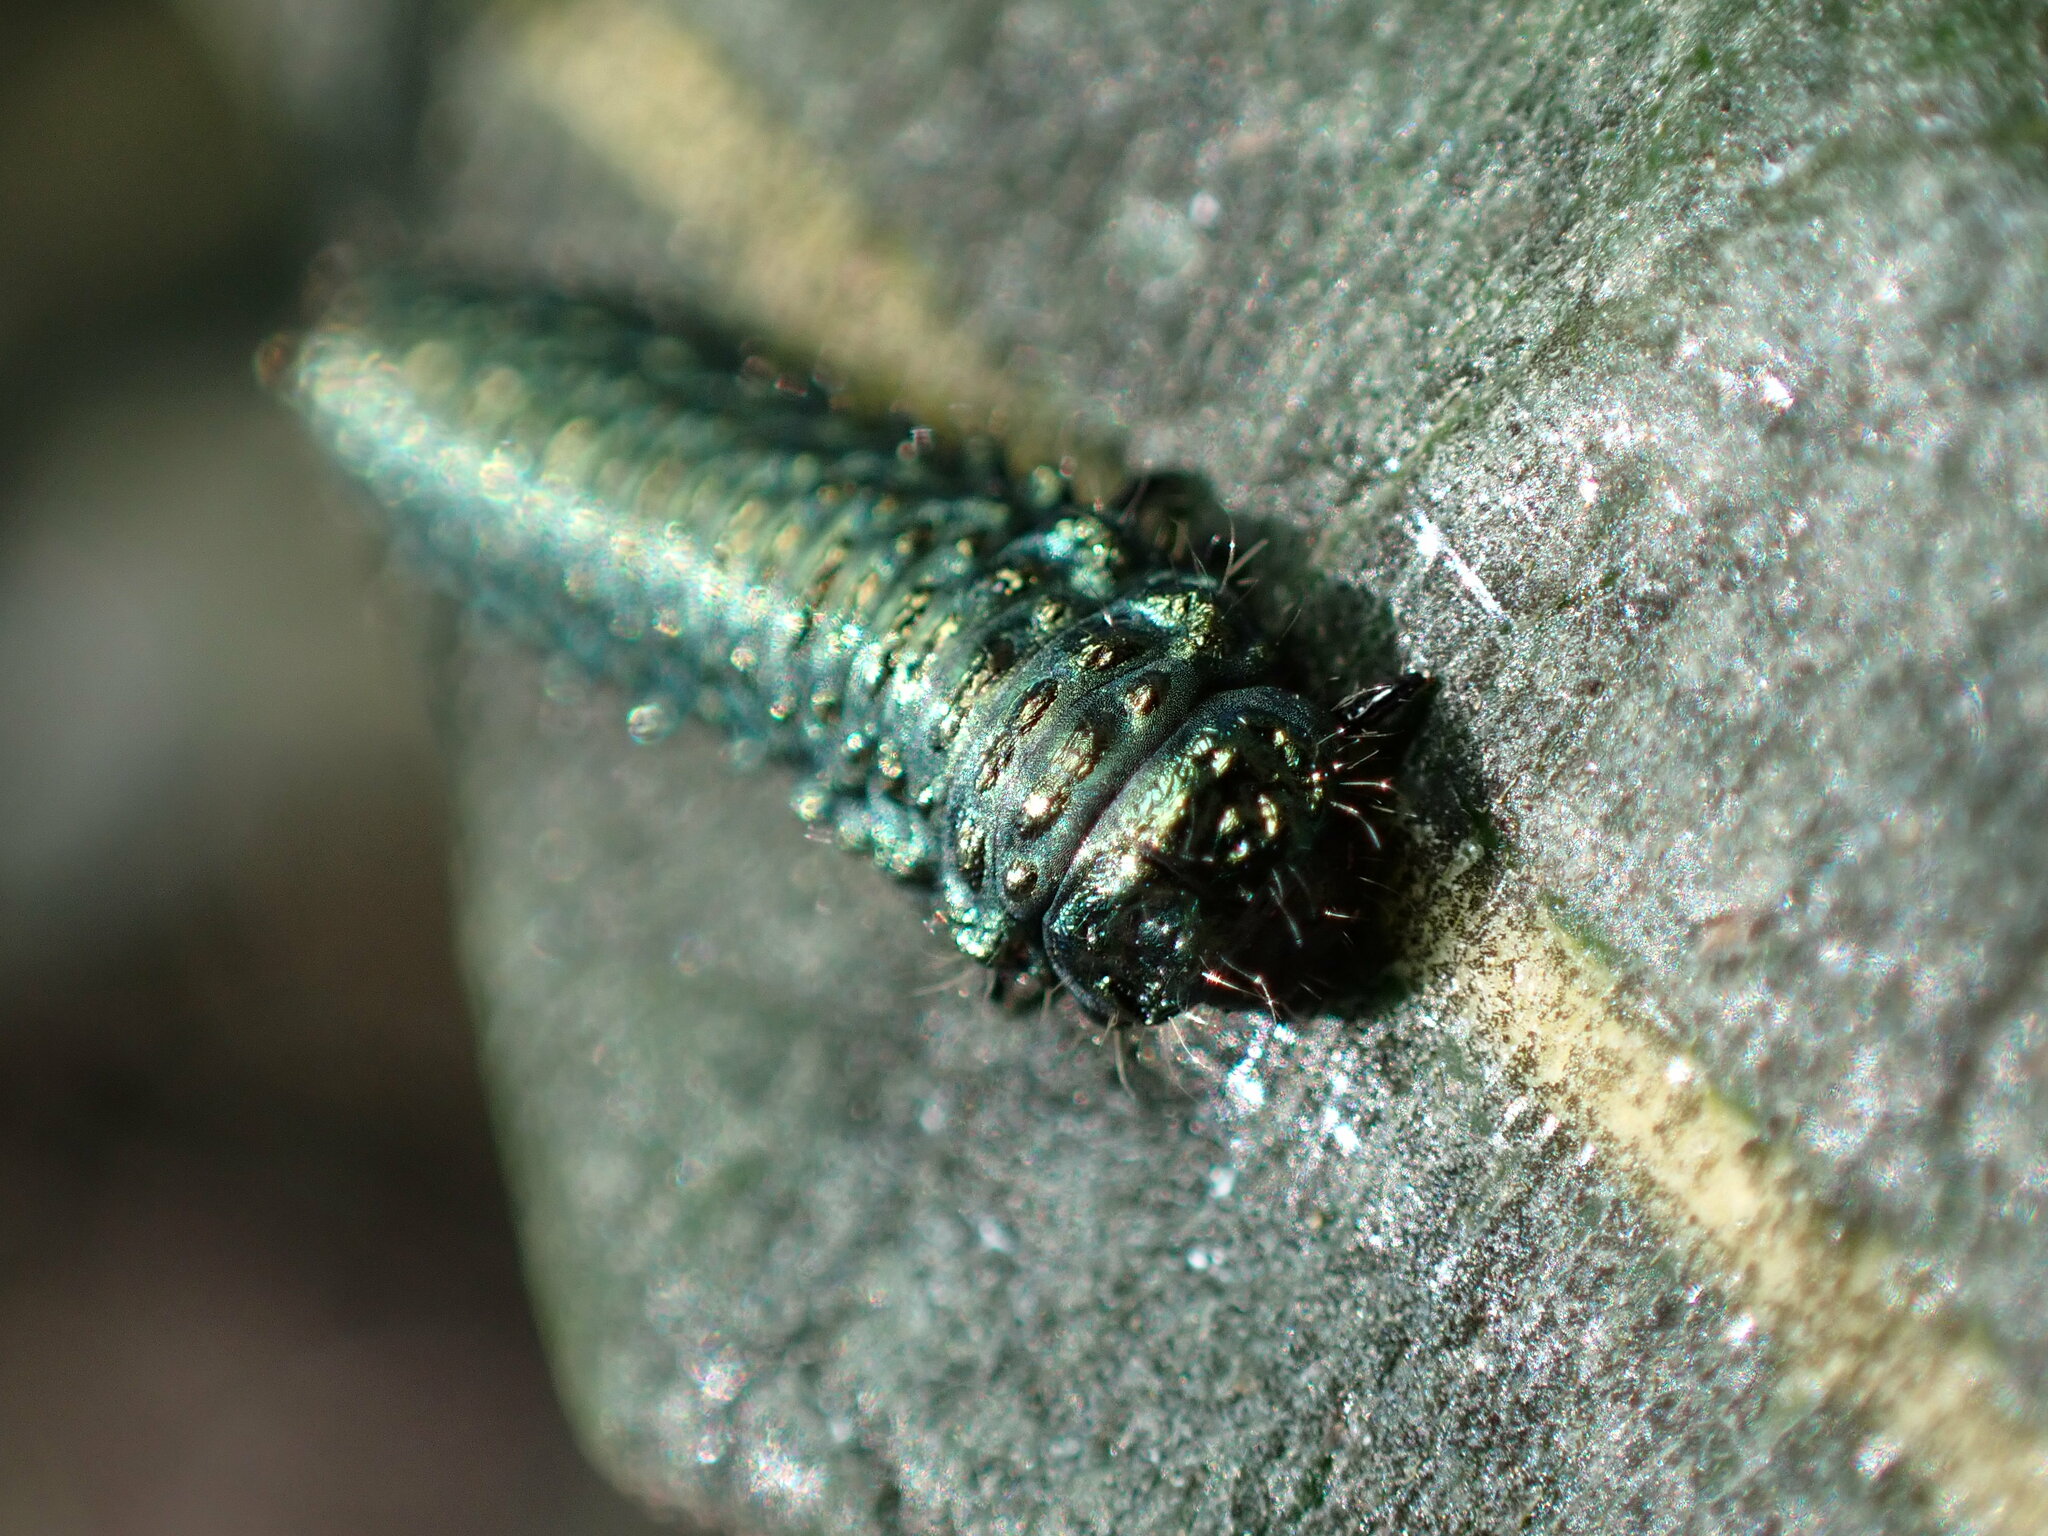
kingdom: Animalia
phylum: Arthropoda
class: Insecta
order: Coleoptera
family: Chrysomelidae
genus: Trirhabda
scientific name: Trirhabda eriodictyonis
